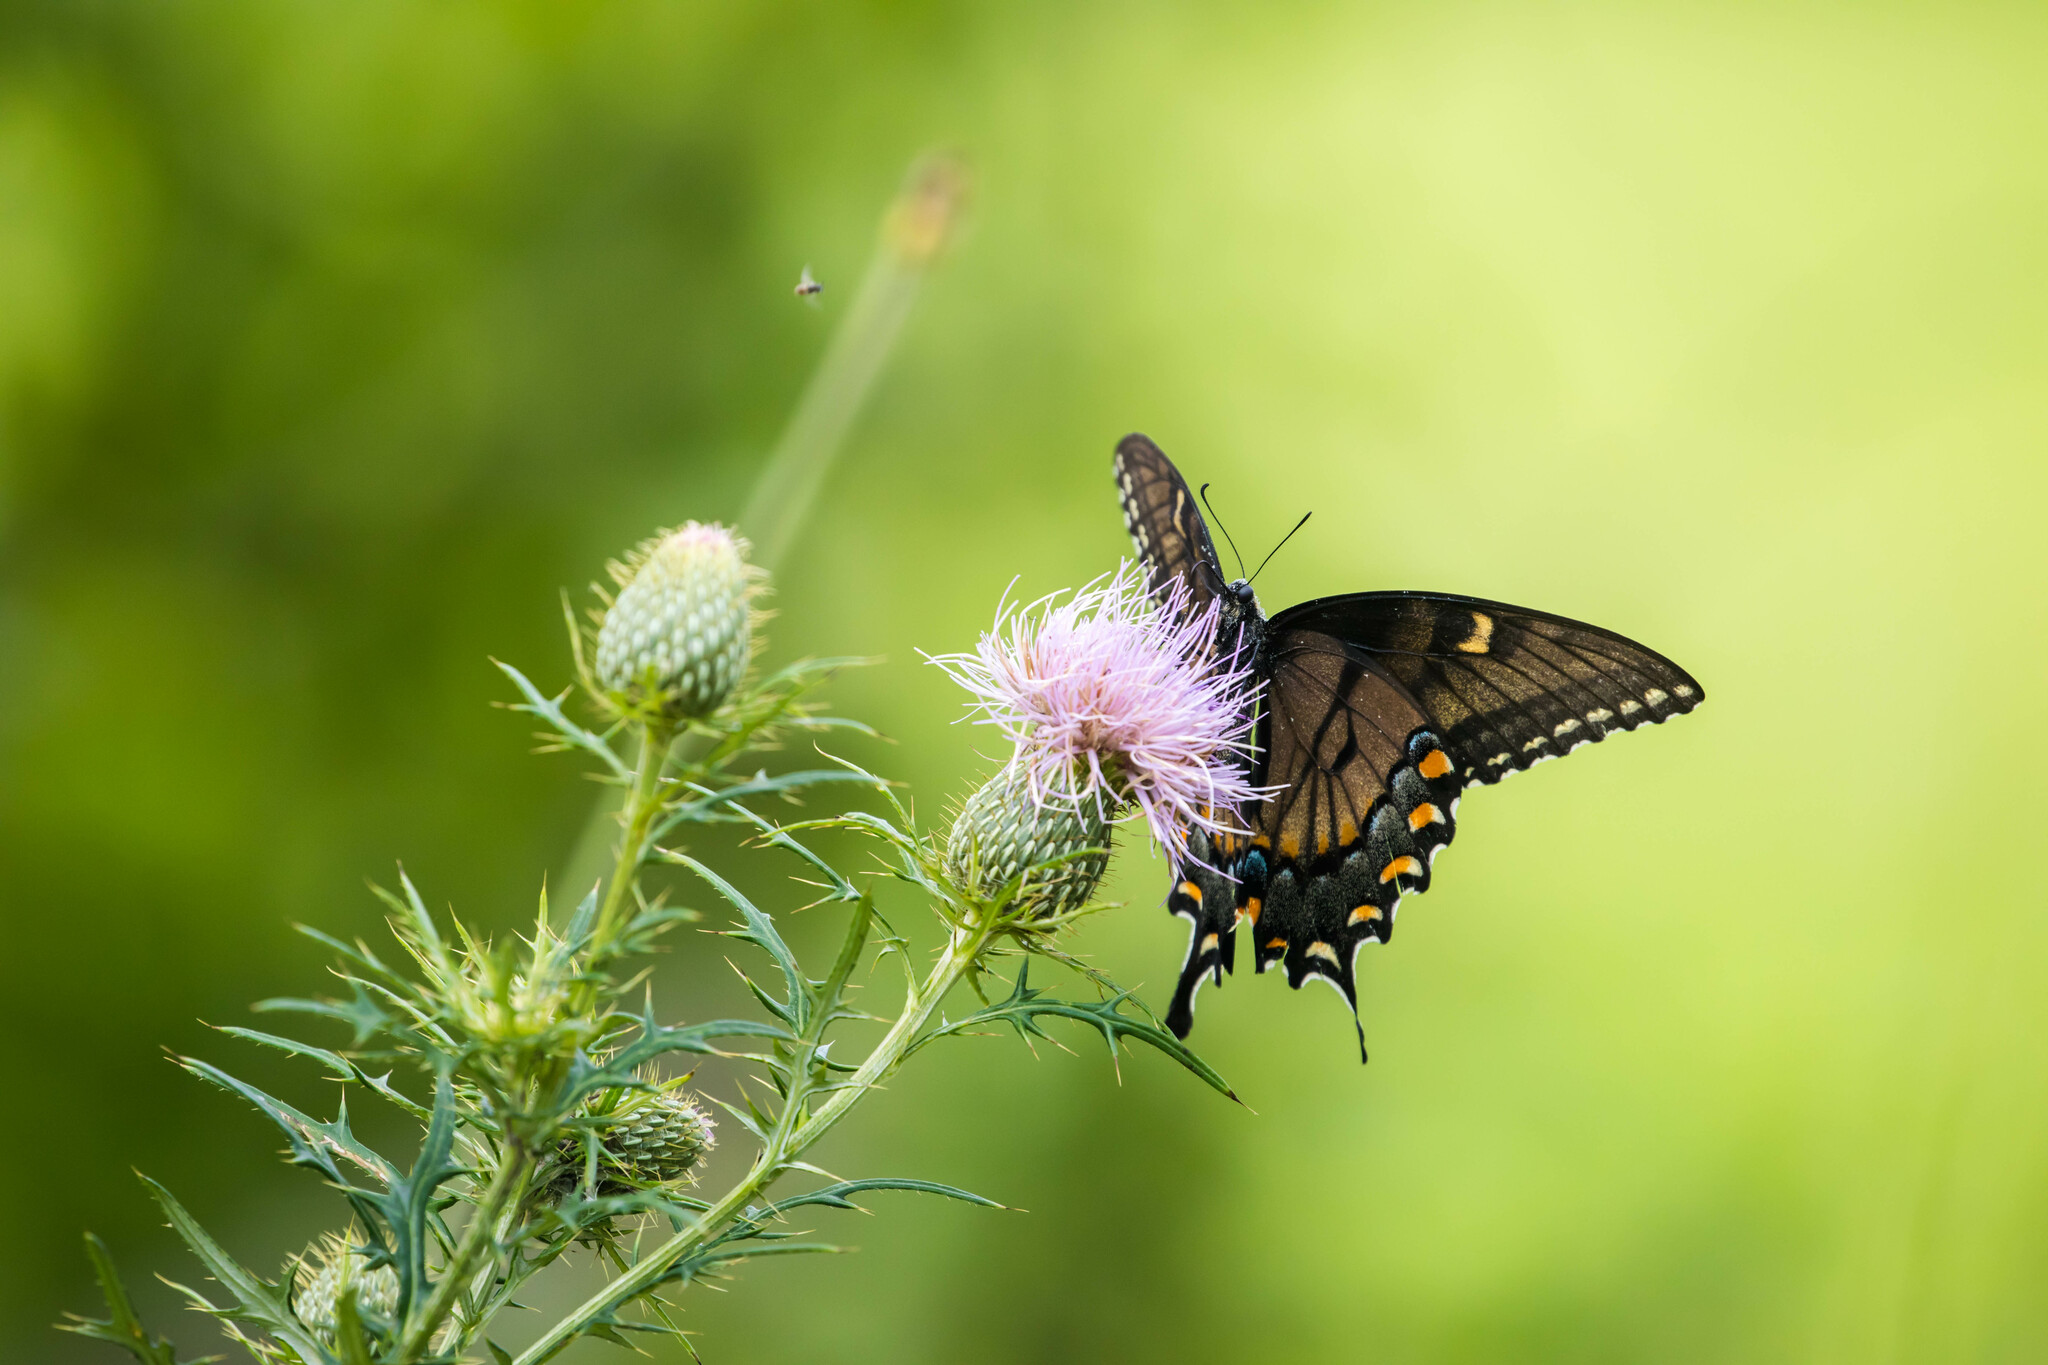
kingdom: Animalia
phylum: Arthropoda
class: Insecta
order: Lepidoptera
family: Papilionidae
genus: Papilio
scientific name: Papilio glaucus
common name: Tiger swallowtail
